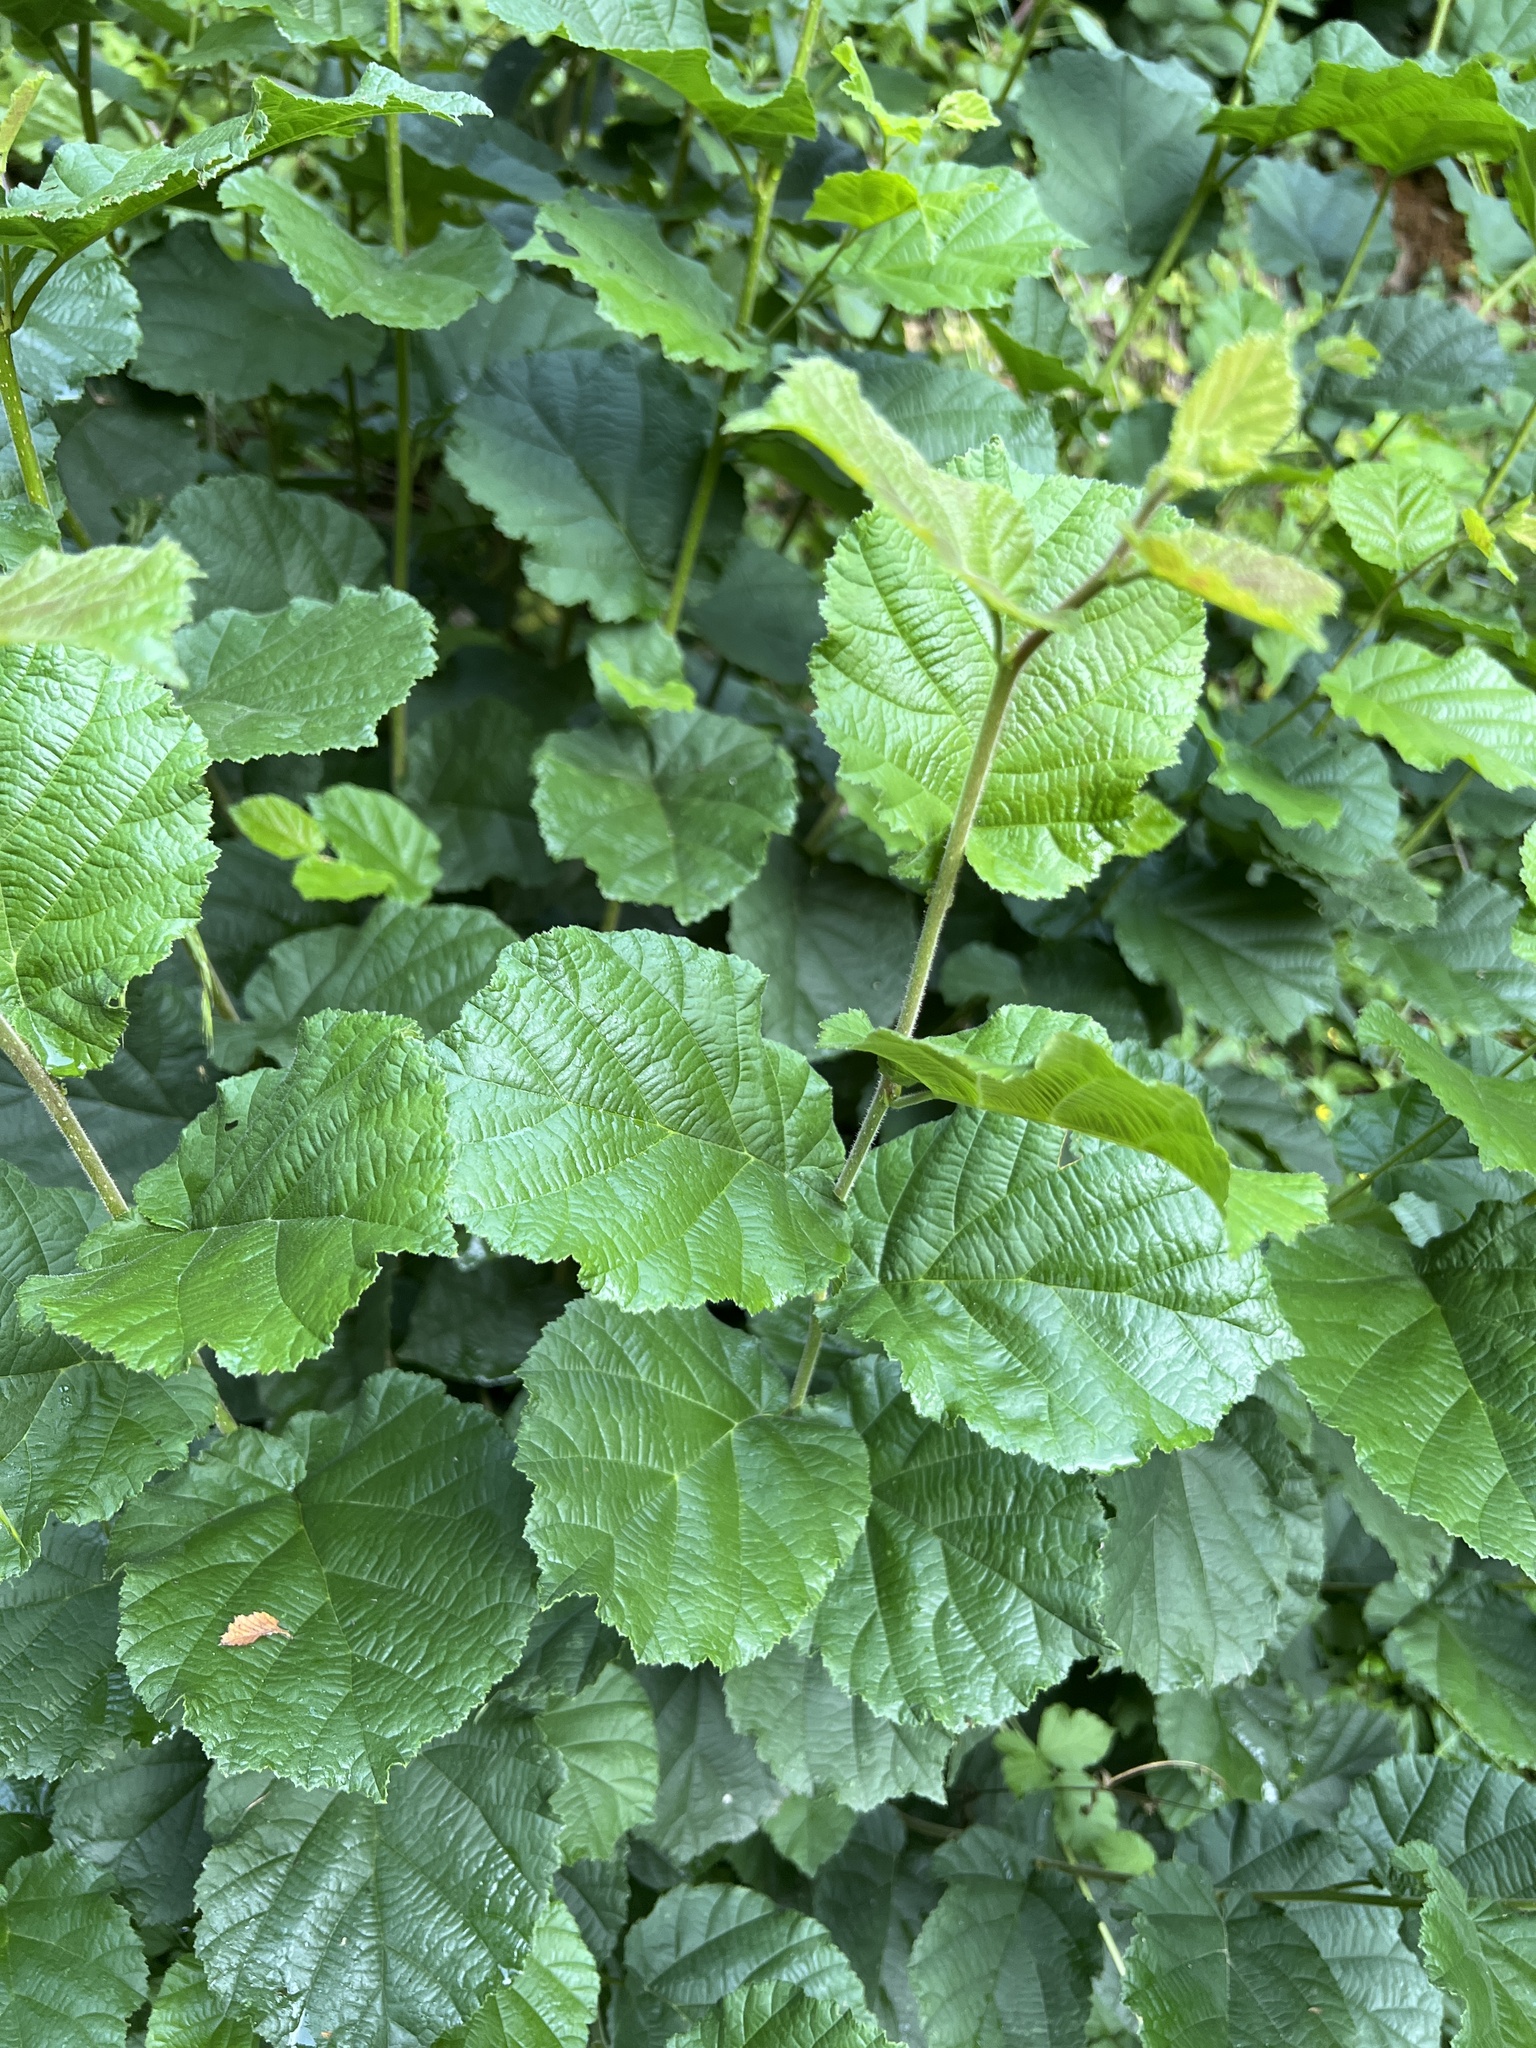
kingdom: Plantae
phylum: Tracheophyta
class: Magnoliopsida
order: Fagales
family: Betulaceae
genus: Corylus
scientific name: Corylus avellana
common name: European hazel
